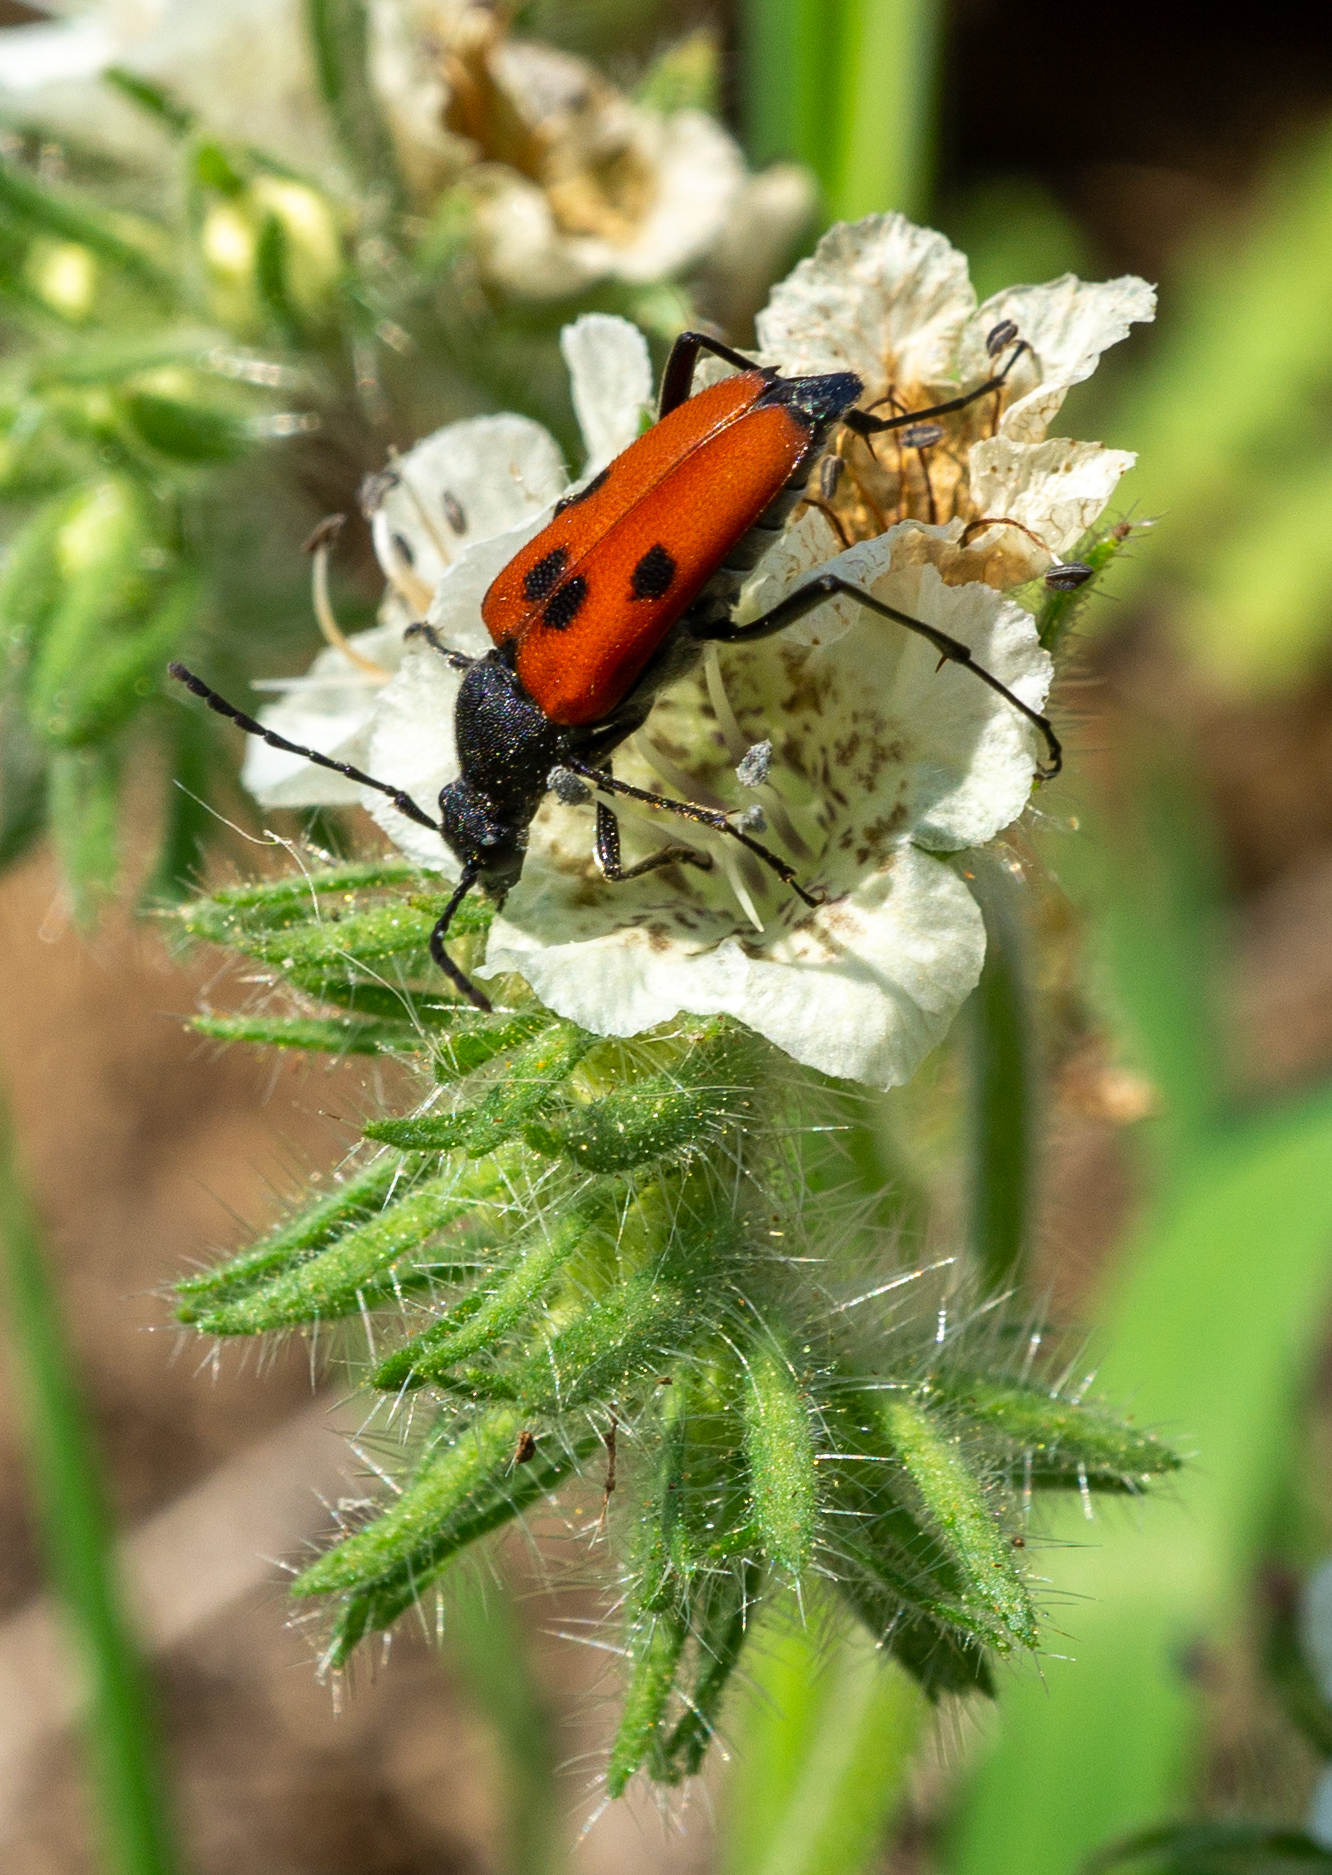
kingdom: Animalia
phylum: Arthropoda
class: Insecta
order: Coleoptera
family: Cerambycidae
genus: Anastrangalia
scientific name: Anastrangalia laetifica
